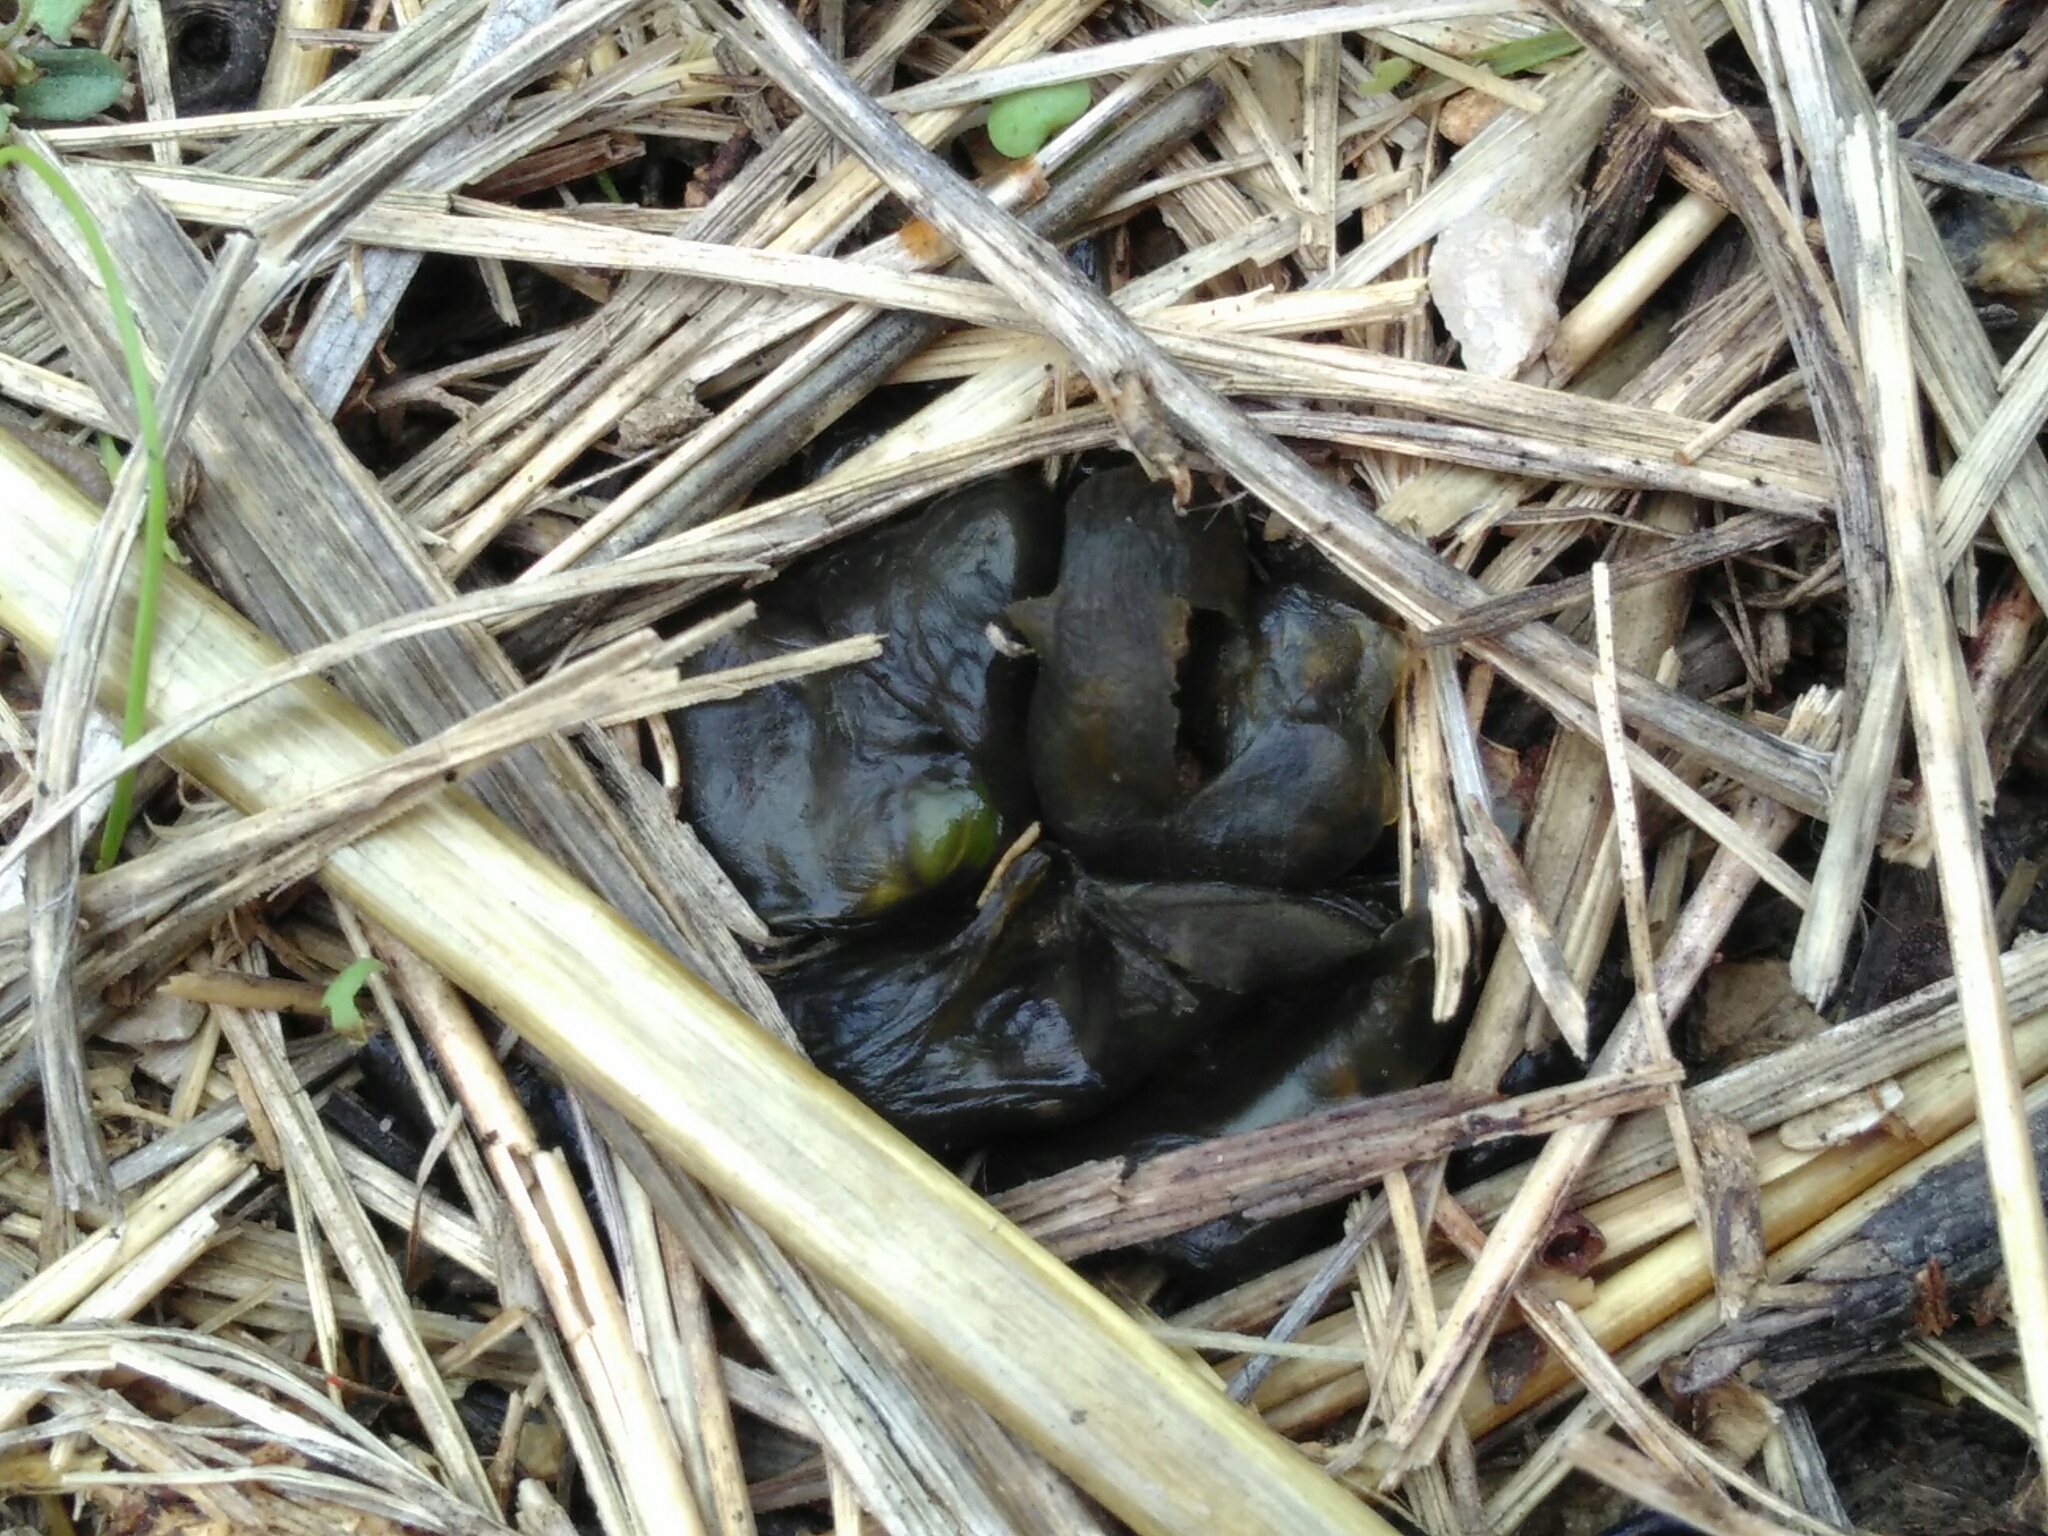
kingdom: Bacteria
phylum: Cyanobacteria
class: Cyanobacteriia
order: Cyanobacteriales
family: Nostocaceae
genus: Nostoc
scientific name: Nostoc commune
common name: Star jelly
